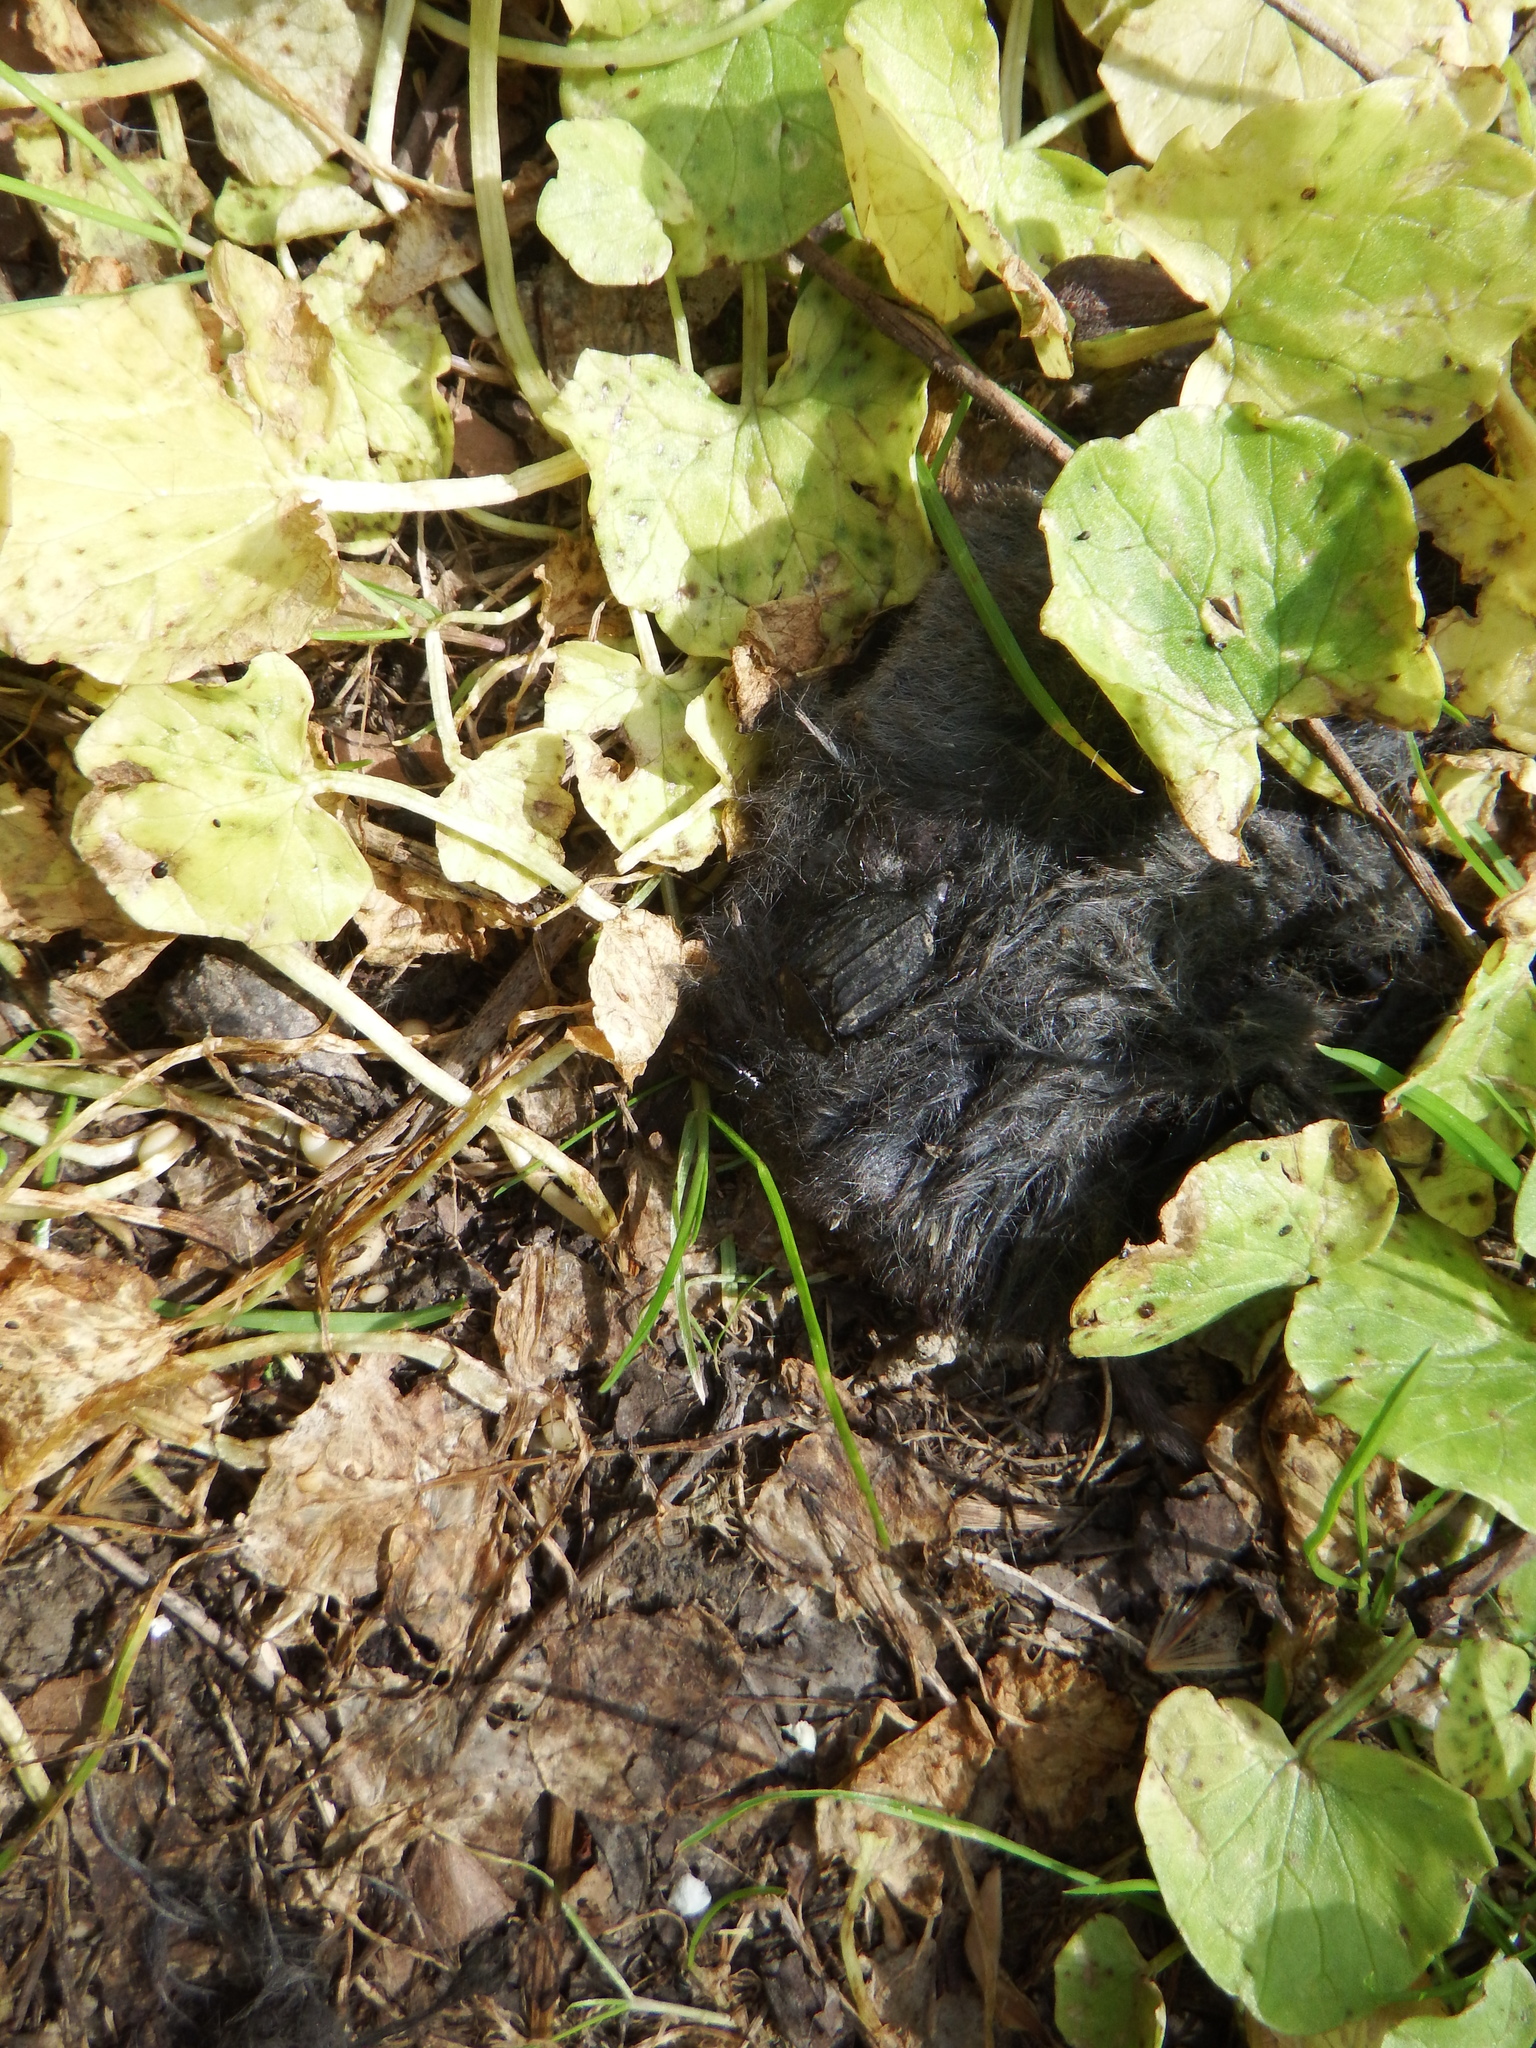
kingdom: Animalia
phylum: Chordata
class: Mammalia
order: Soricomorpha
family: Soricidae
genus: Blarina
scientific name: Blarina brevicauda
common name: Northern short-tailed shrew
